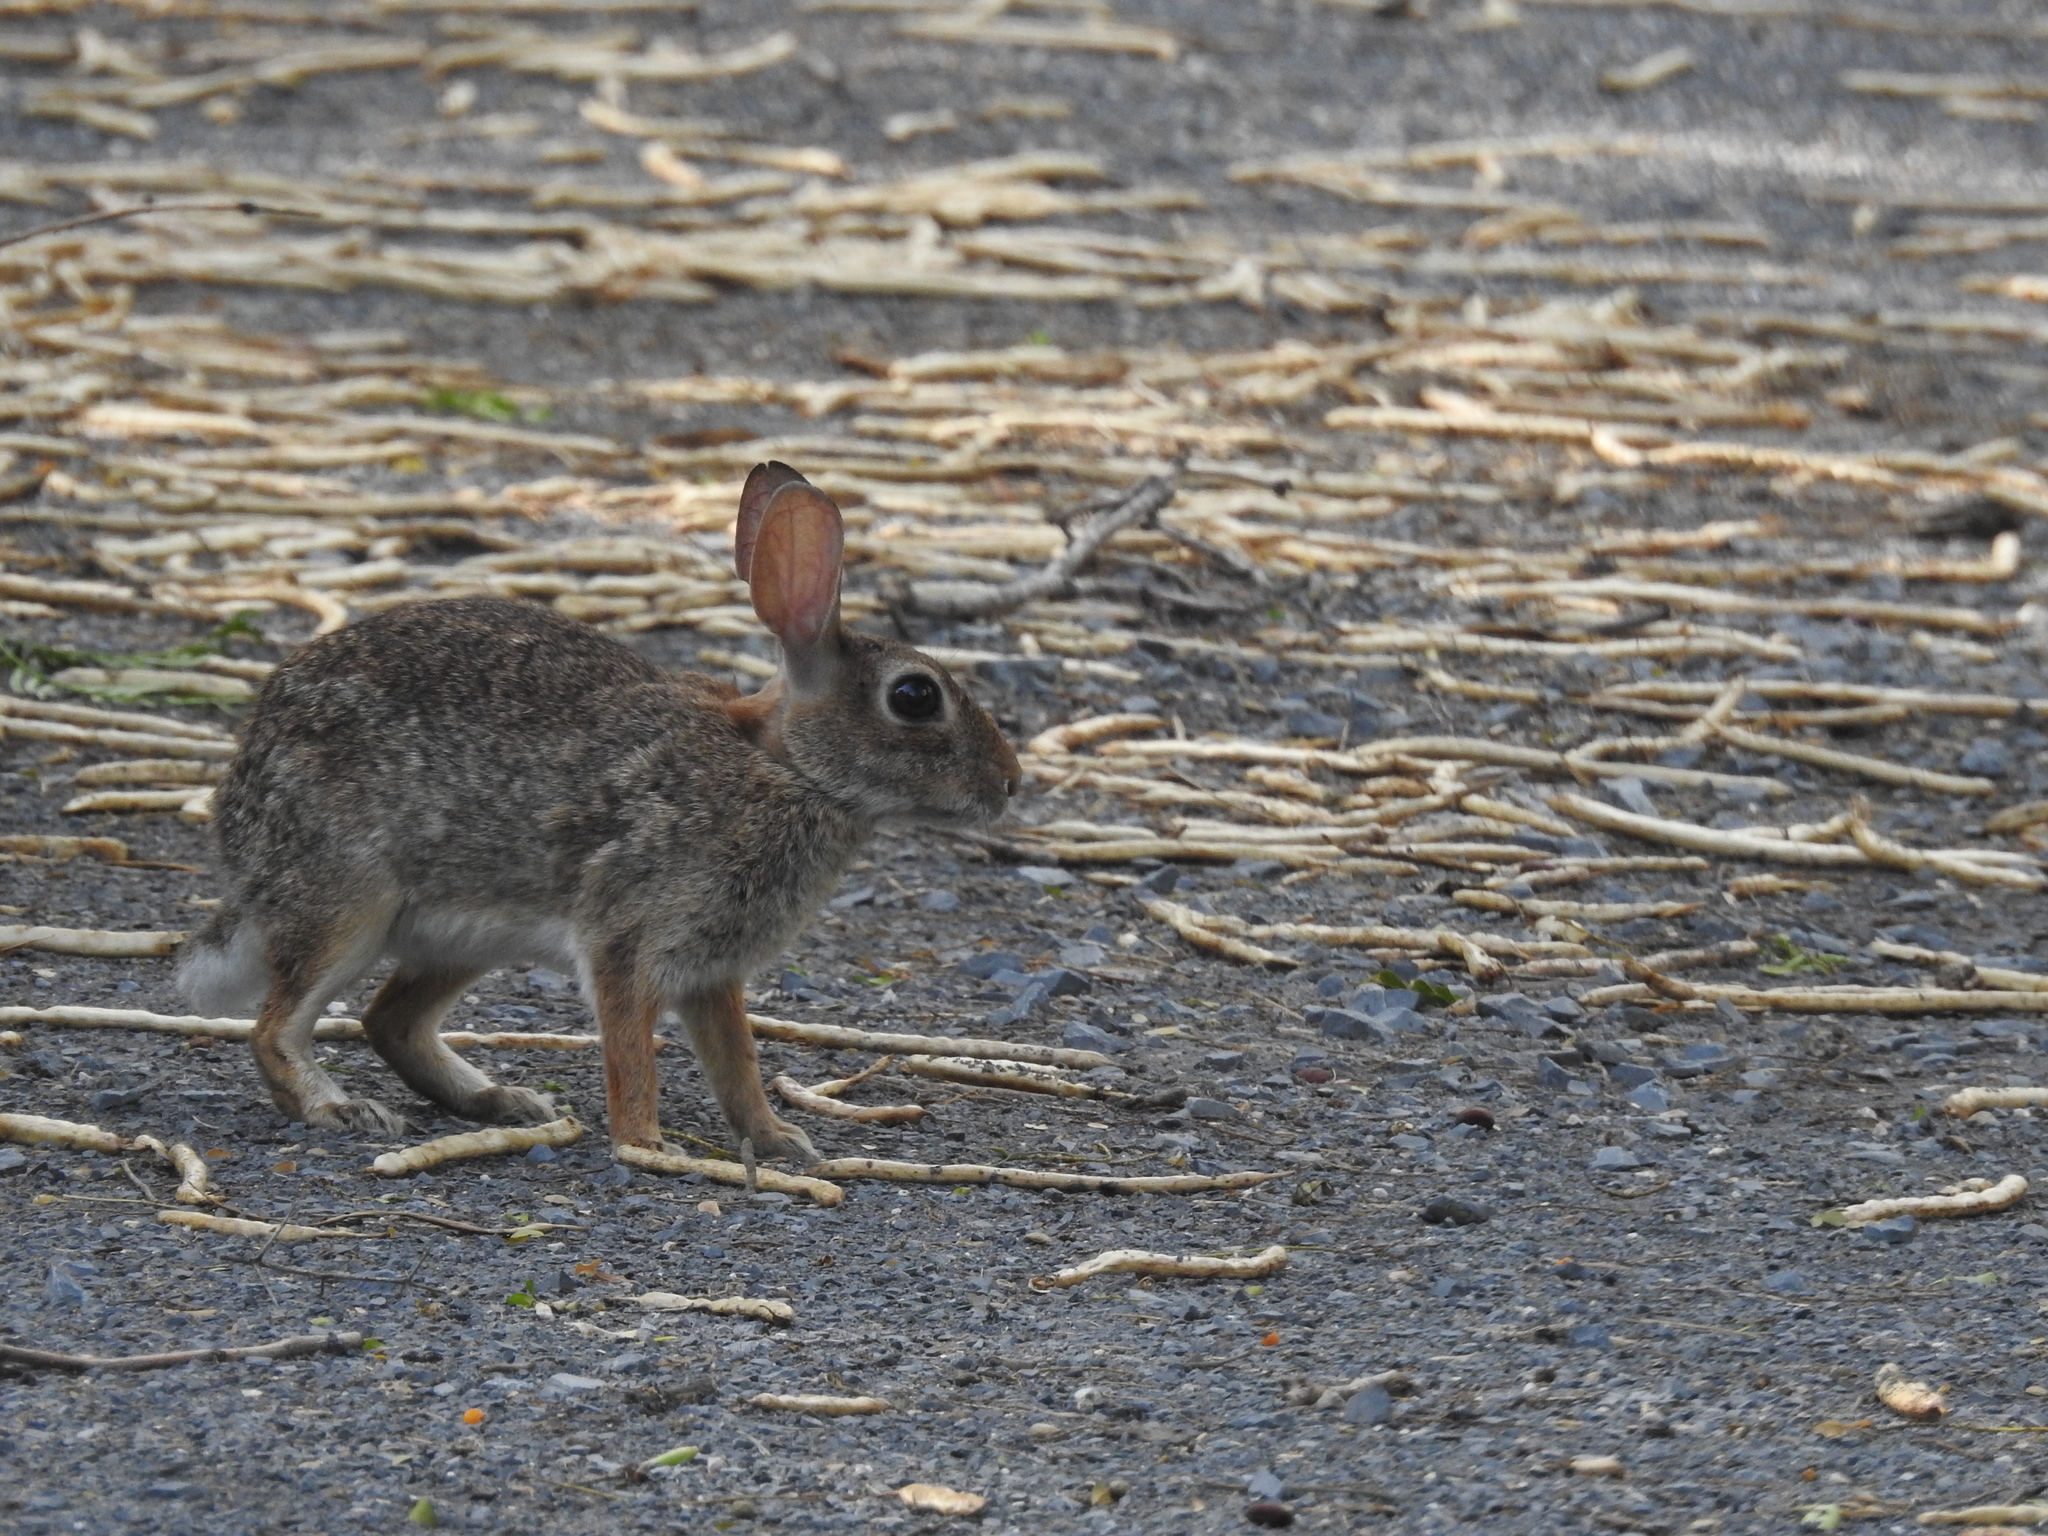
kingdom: Animalia
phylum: Chordata
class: Mammalia
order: Lagomorpha
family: Leporidae
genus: Sylvilagus
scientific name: Sylvilagus floridanus
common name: Eastern cottontail
